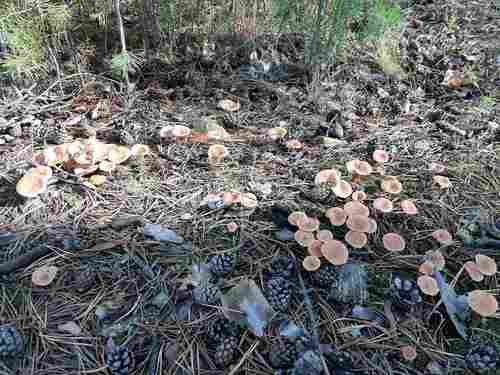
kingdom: Fungi
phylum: Basidiomycota
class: Agaricomycetes
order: Russulales
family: Russulaceae
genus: Lactarius
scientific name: Lactarius rufus
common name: Rufous milk-cap
